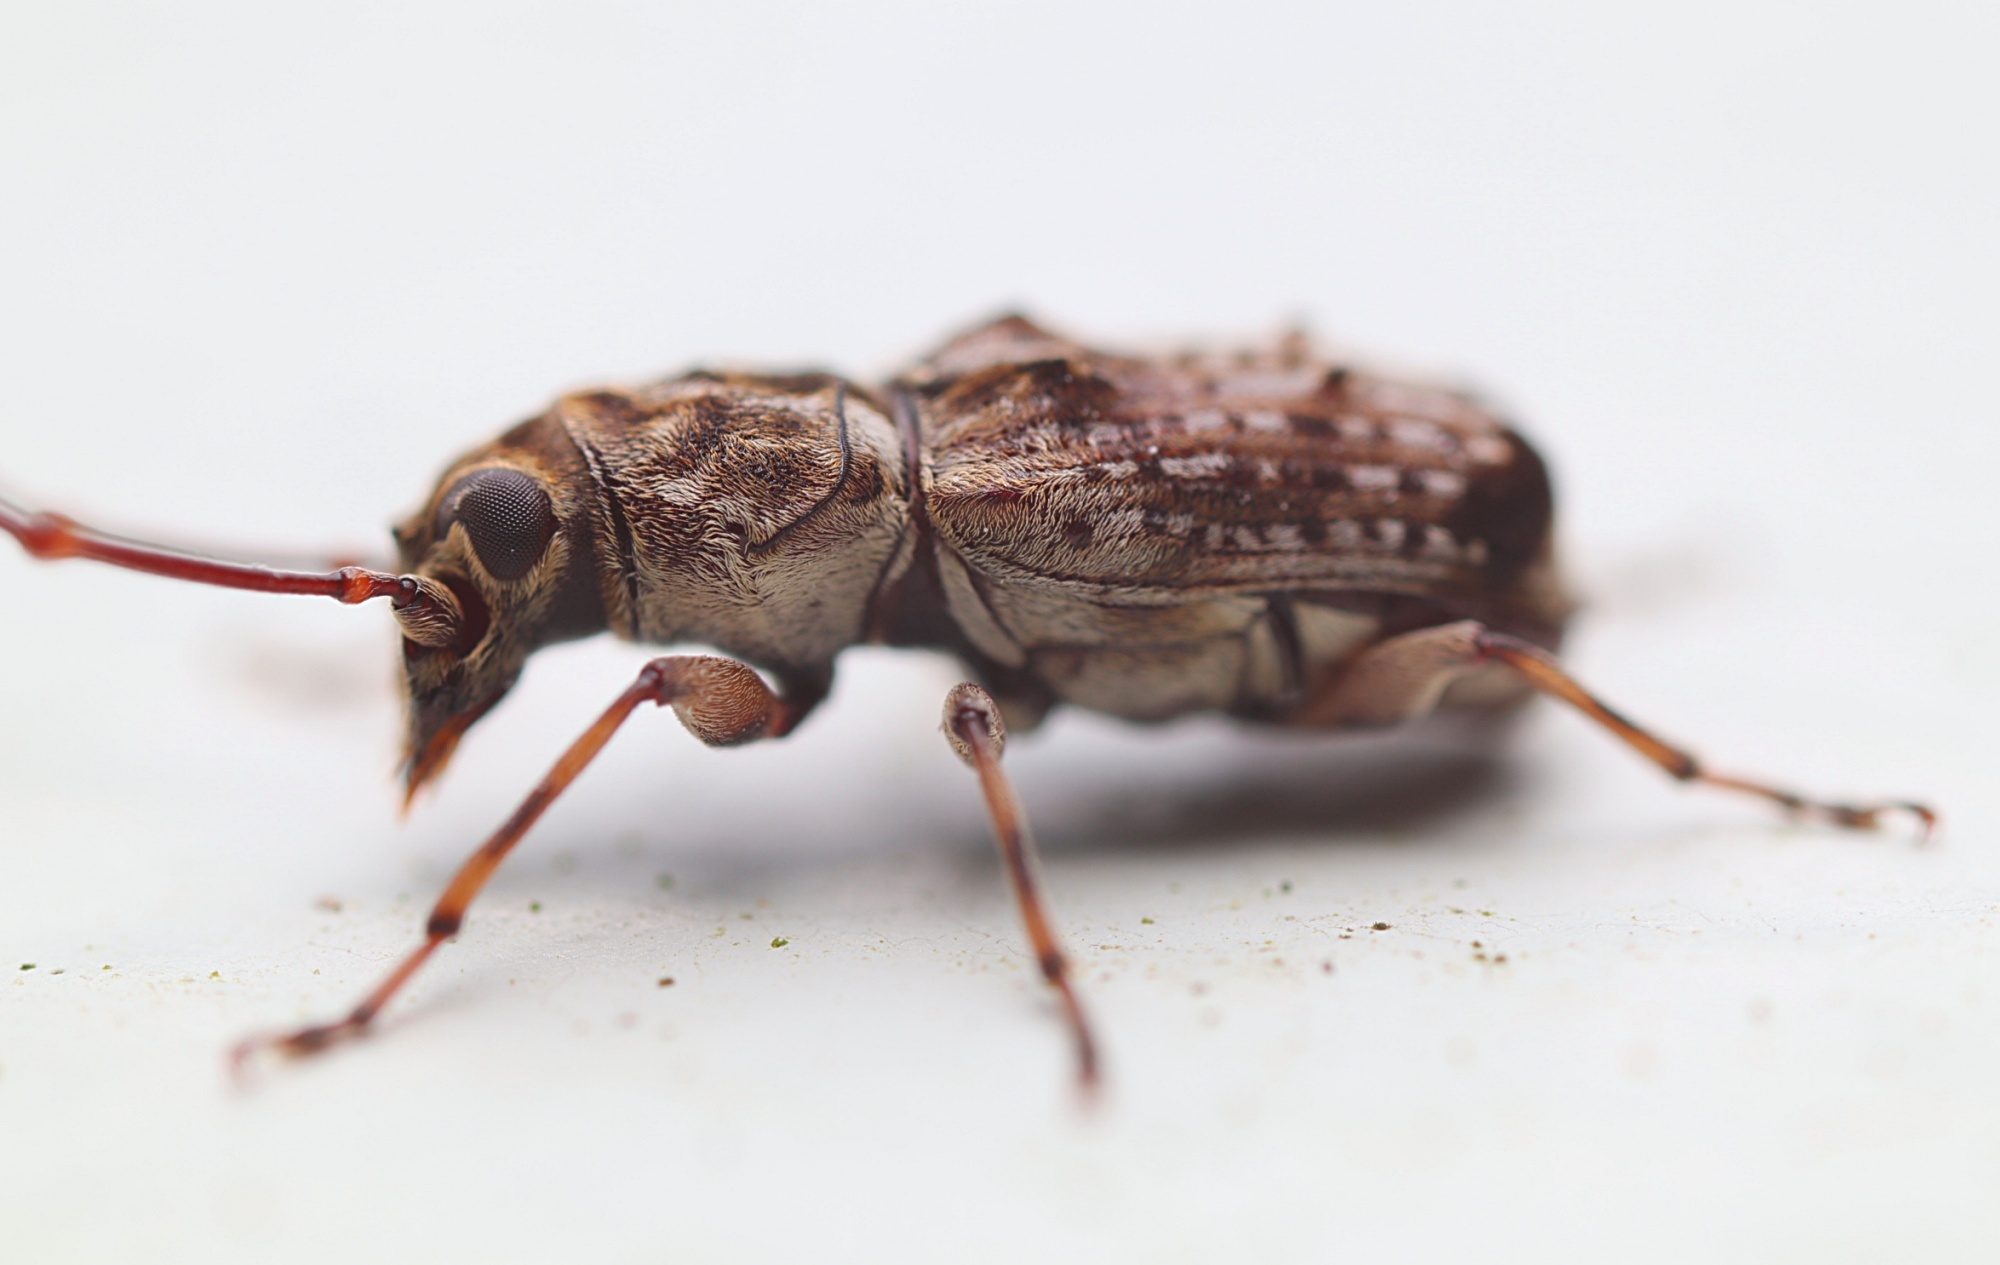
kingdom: Animalia
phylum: Arthropoda
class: Insecta
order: Coleoptera
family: Anthribidae
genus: Phymatus
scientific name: Phymatus
